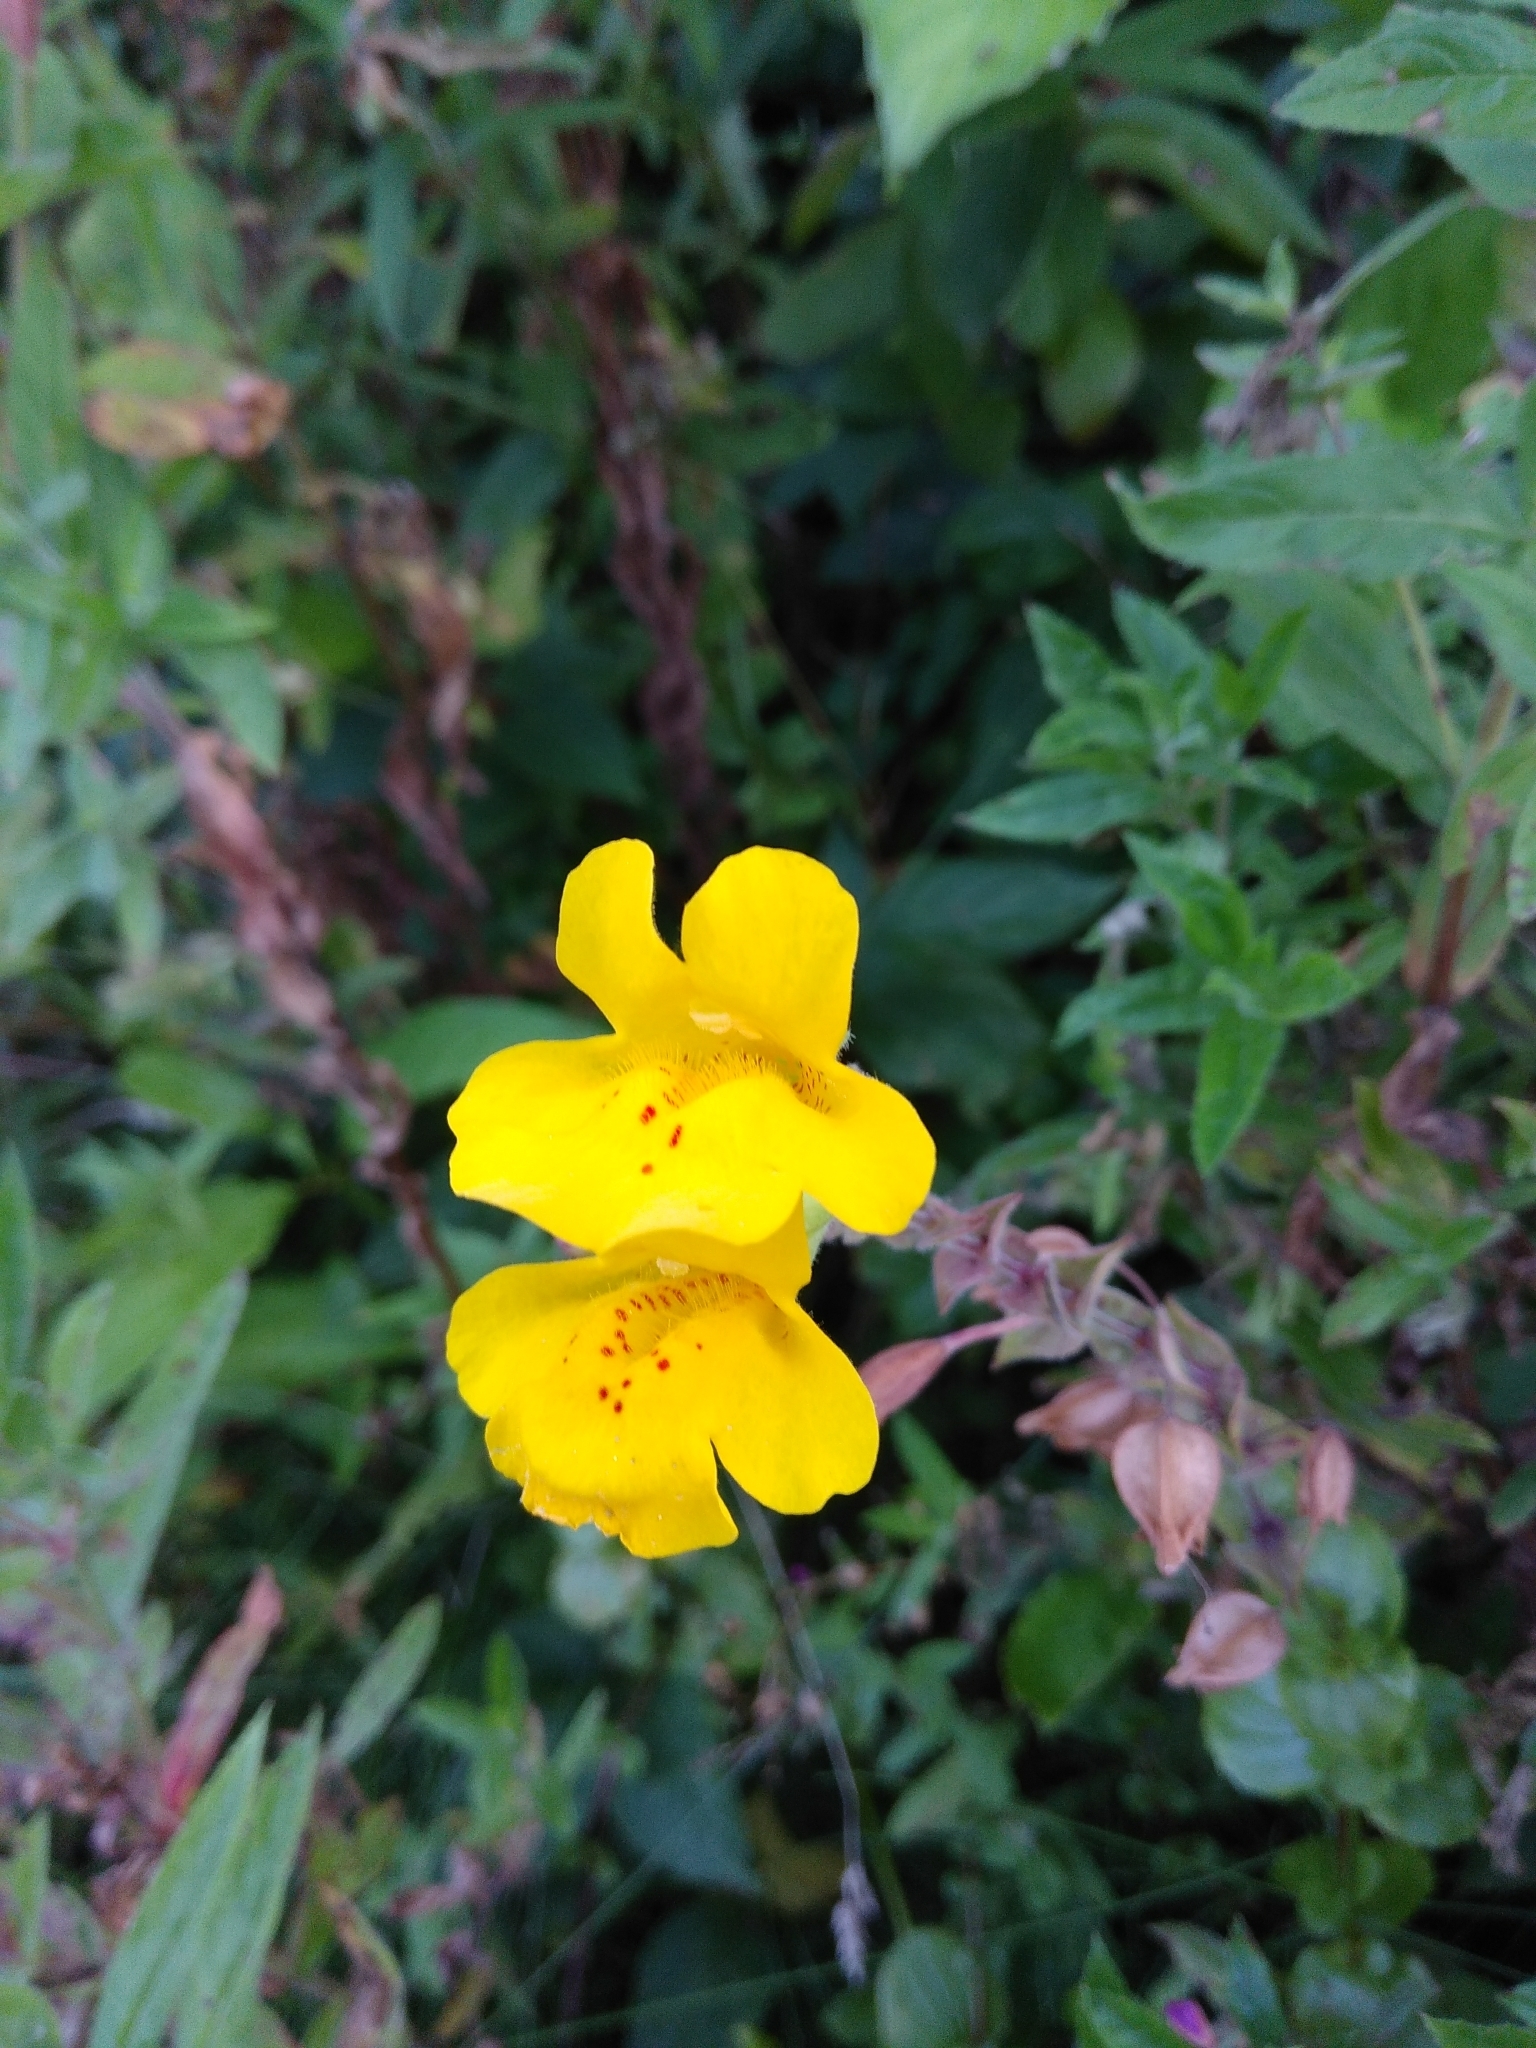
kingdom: Plantae
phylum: Tracheophyta
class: Magnoliopsida
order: Lamiales
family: Phrymaceae
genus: Erythranthe
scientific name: Erythranthe guttata
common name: Monkeyflower
